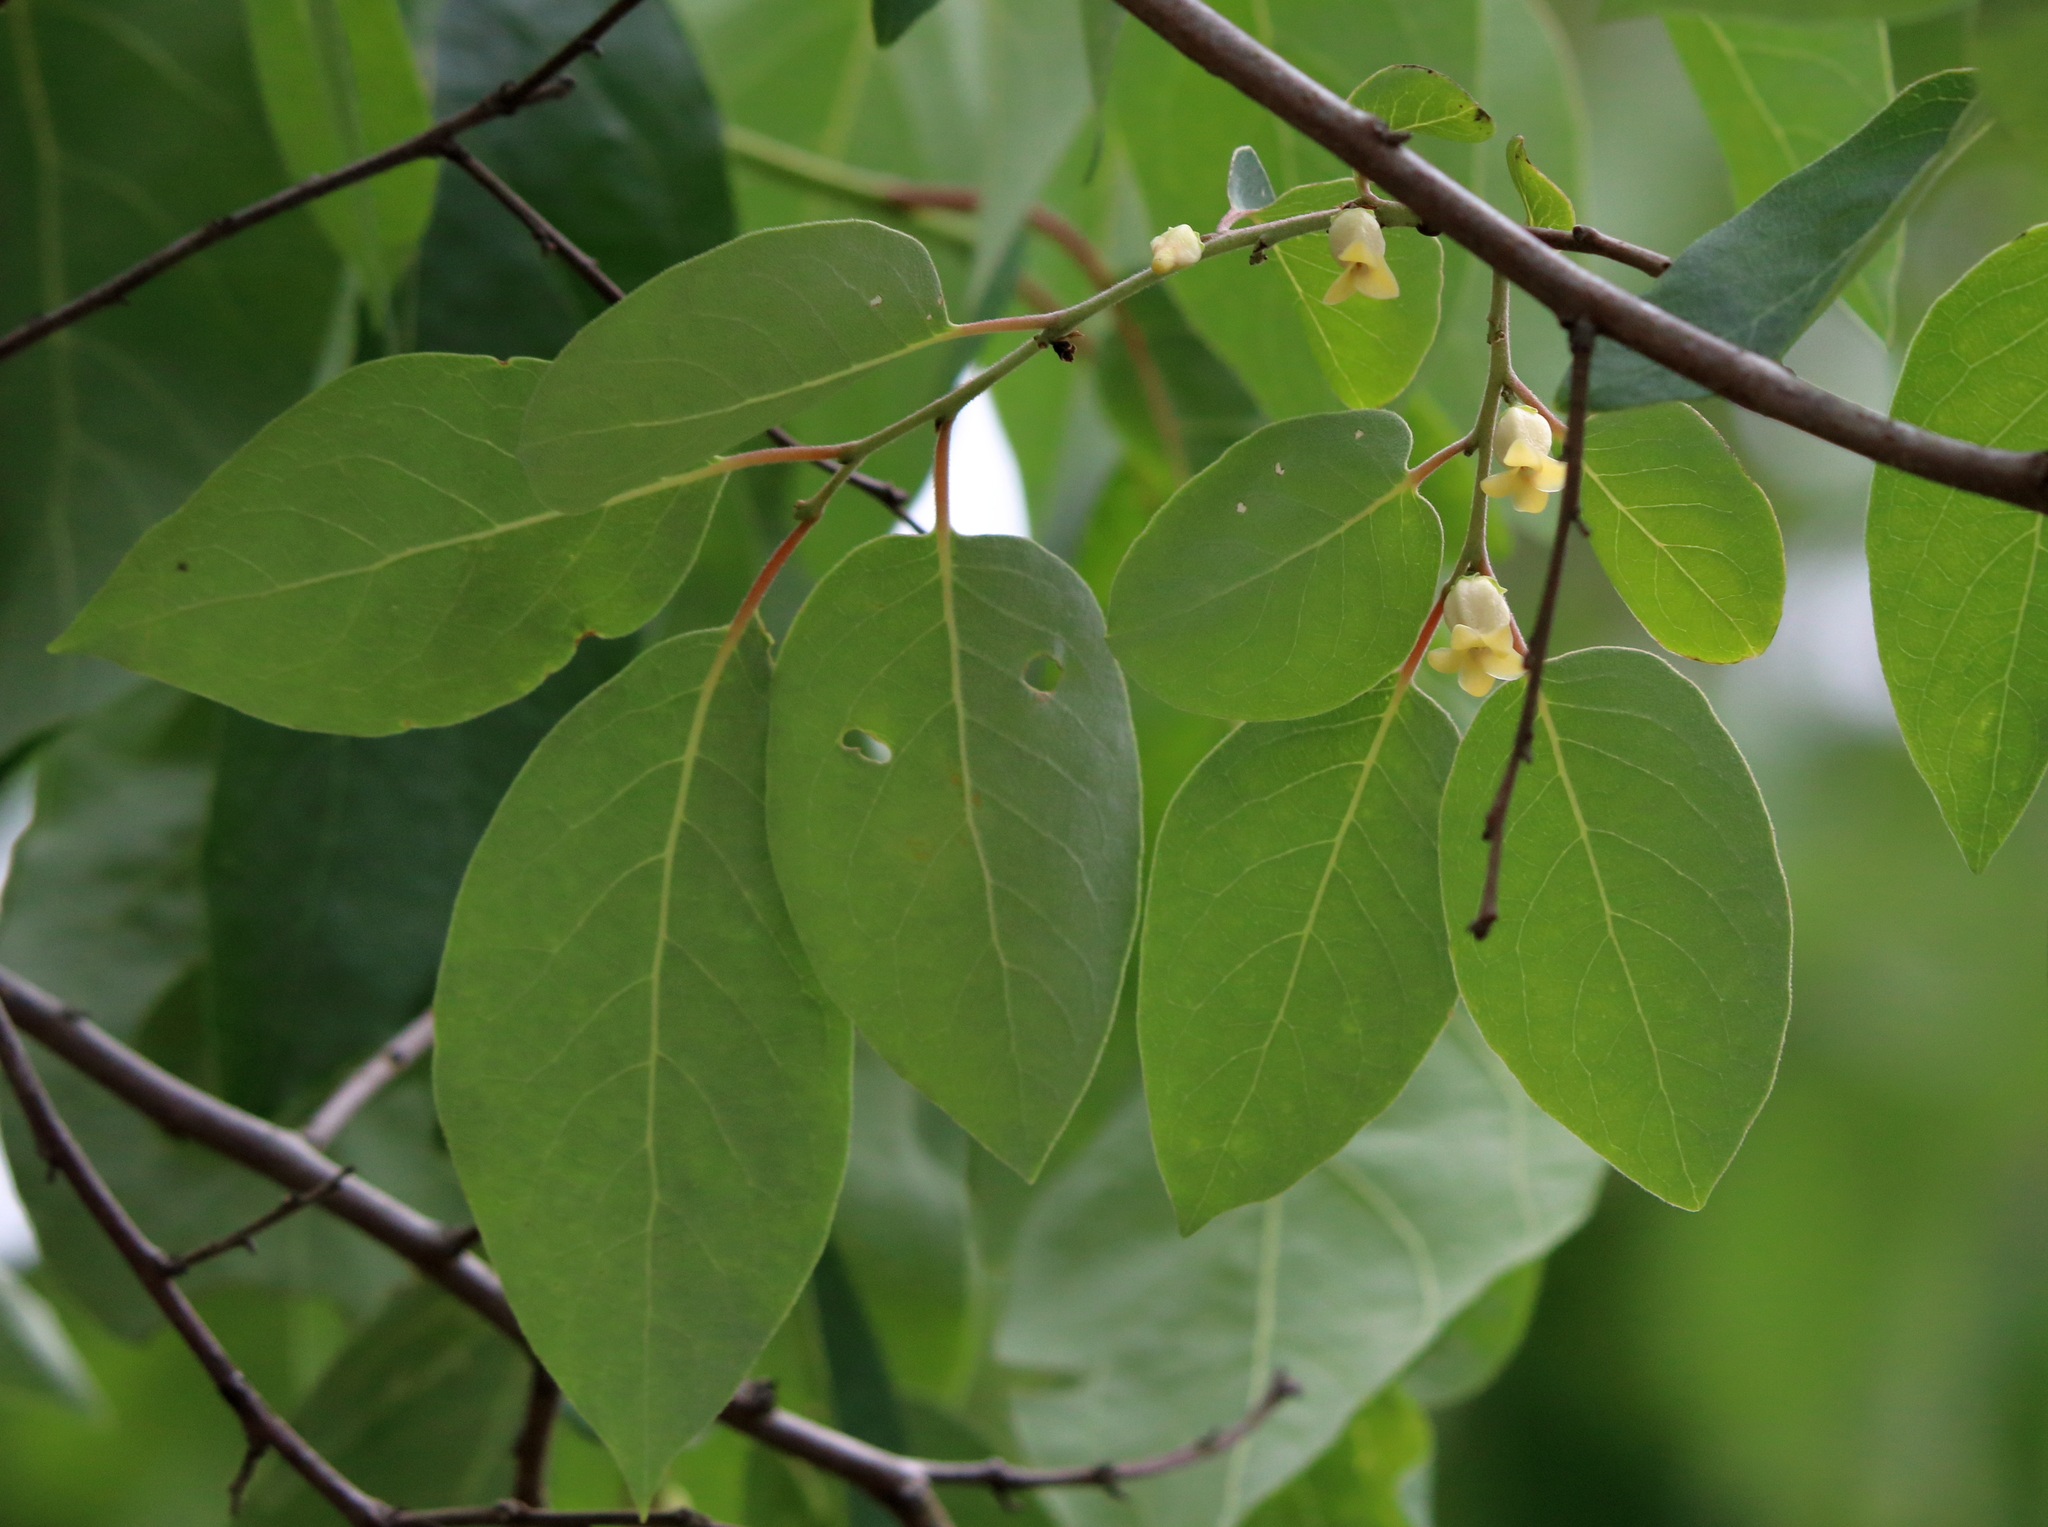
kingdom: Plantae
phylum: Tracheophyta
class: Magnoliopsida
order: Ericales
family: Ebenaceae
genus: Diospyros
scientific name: Diospyros virginiana
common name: Persimmon
